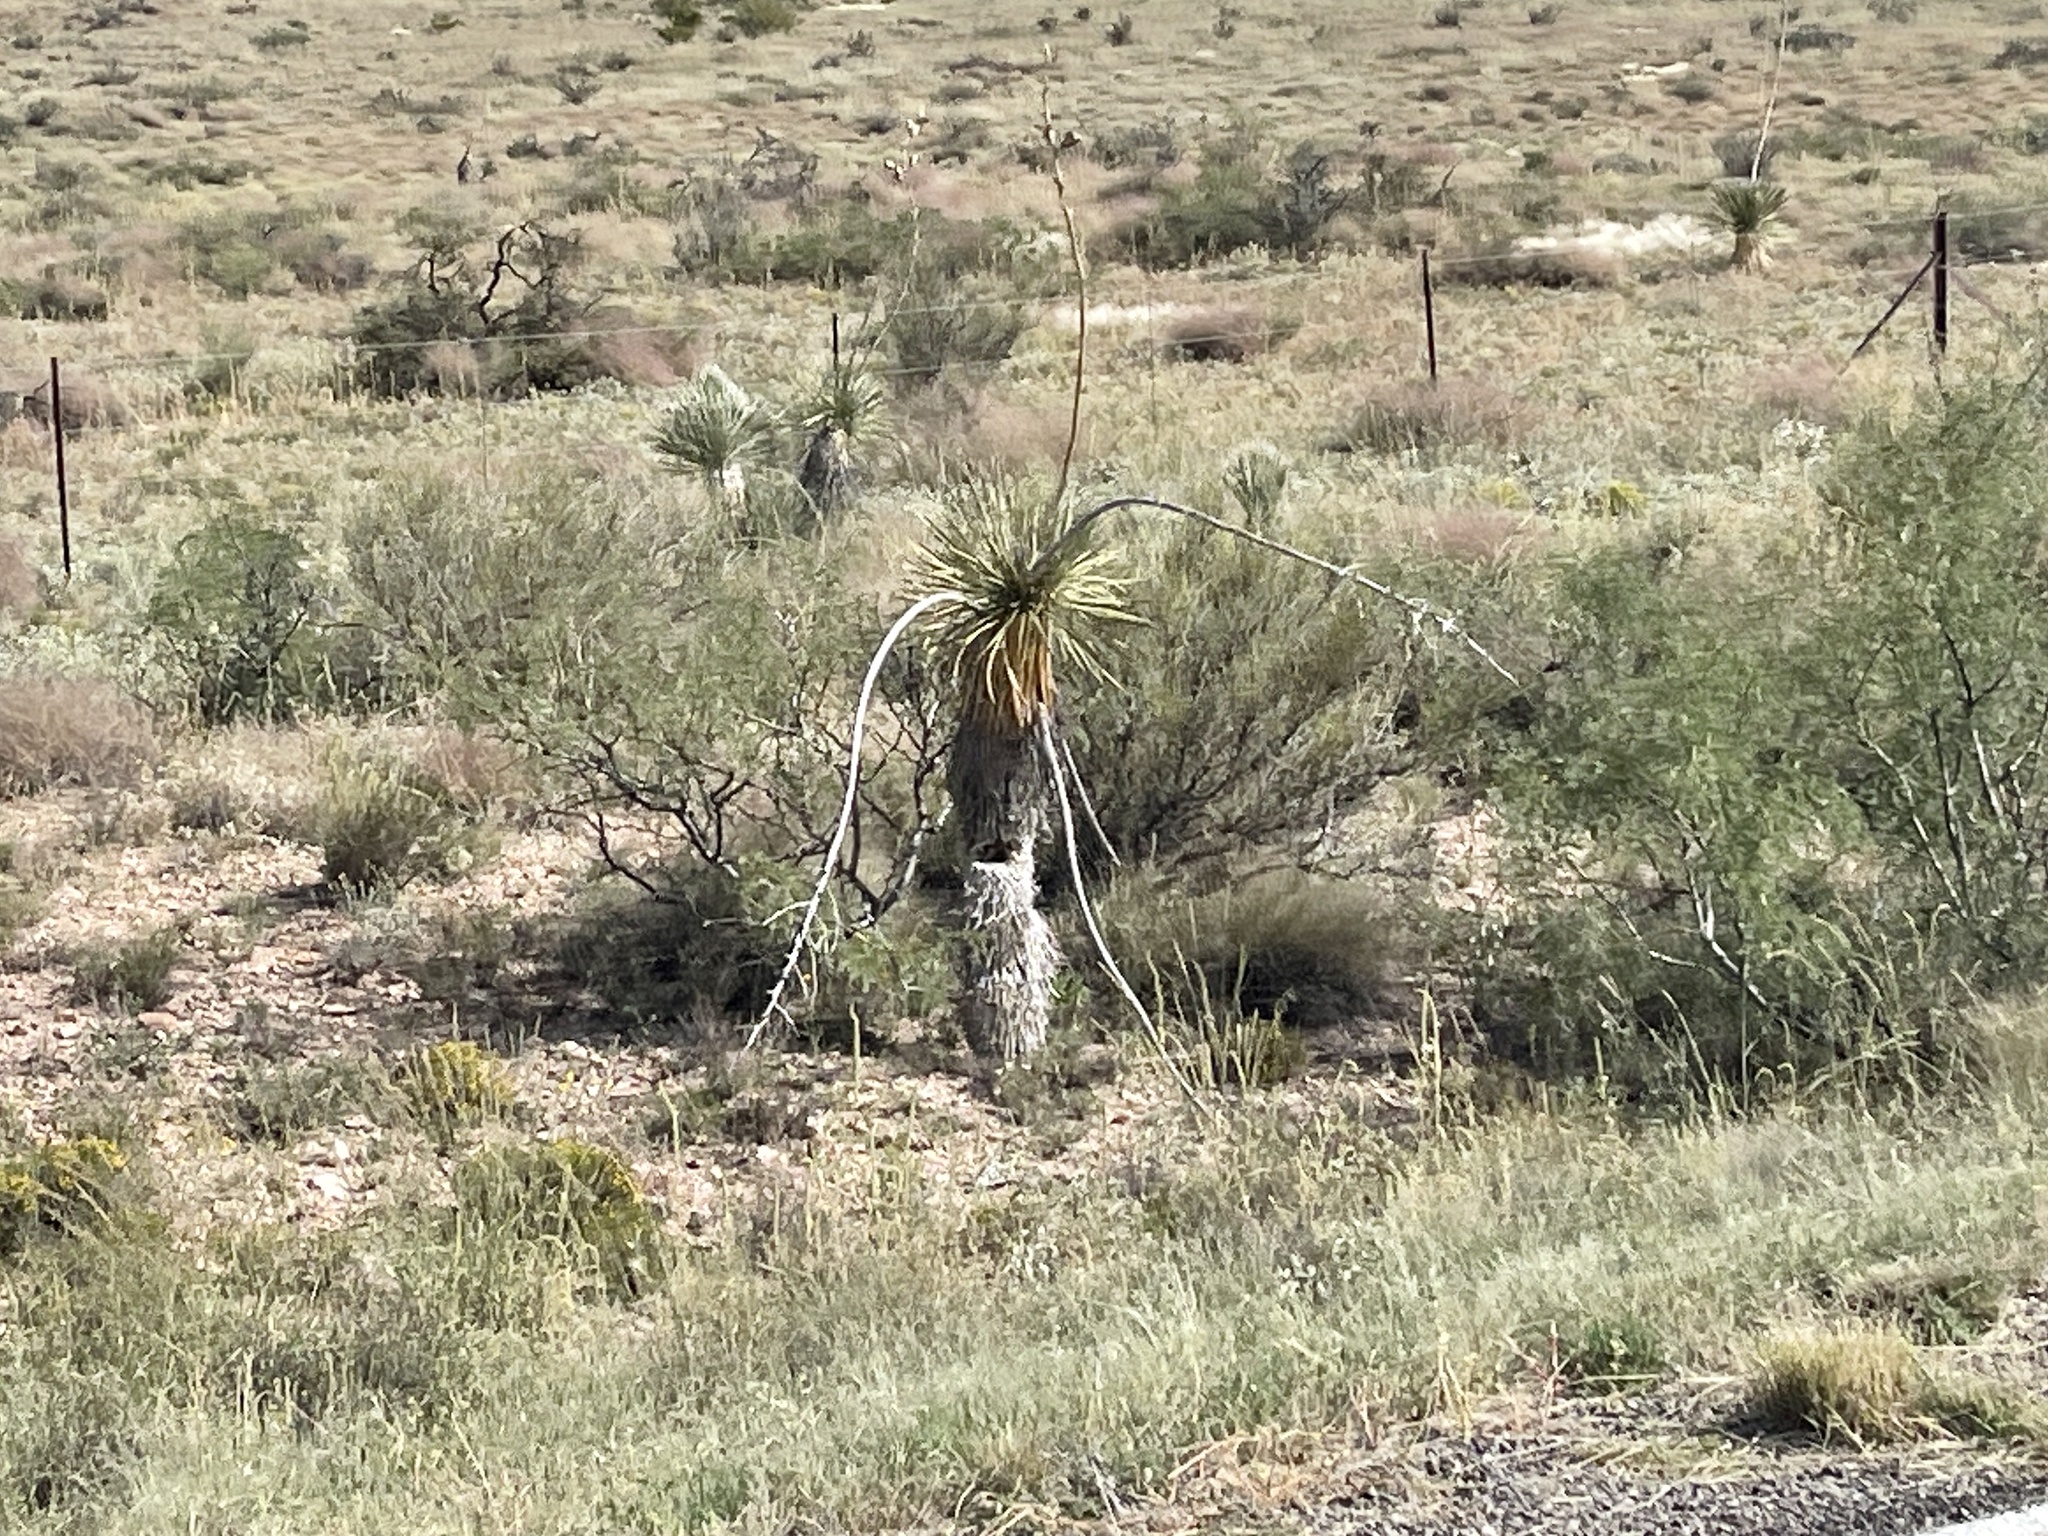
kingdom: Plantae
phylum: Tracheophyta
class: Liliopsida
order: Asparagales
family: Asparagaceae
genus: Yucca
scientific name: Yucca elata
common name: Palmella
